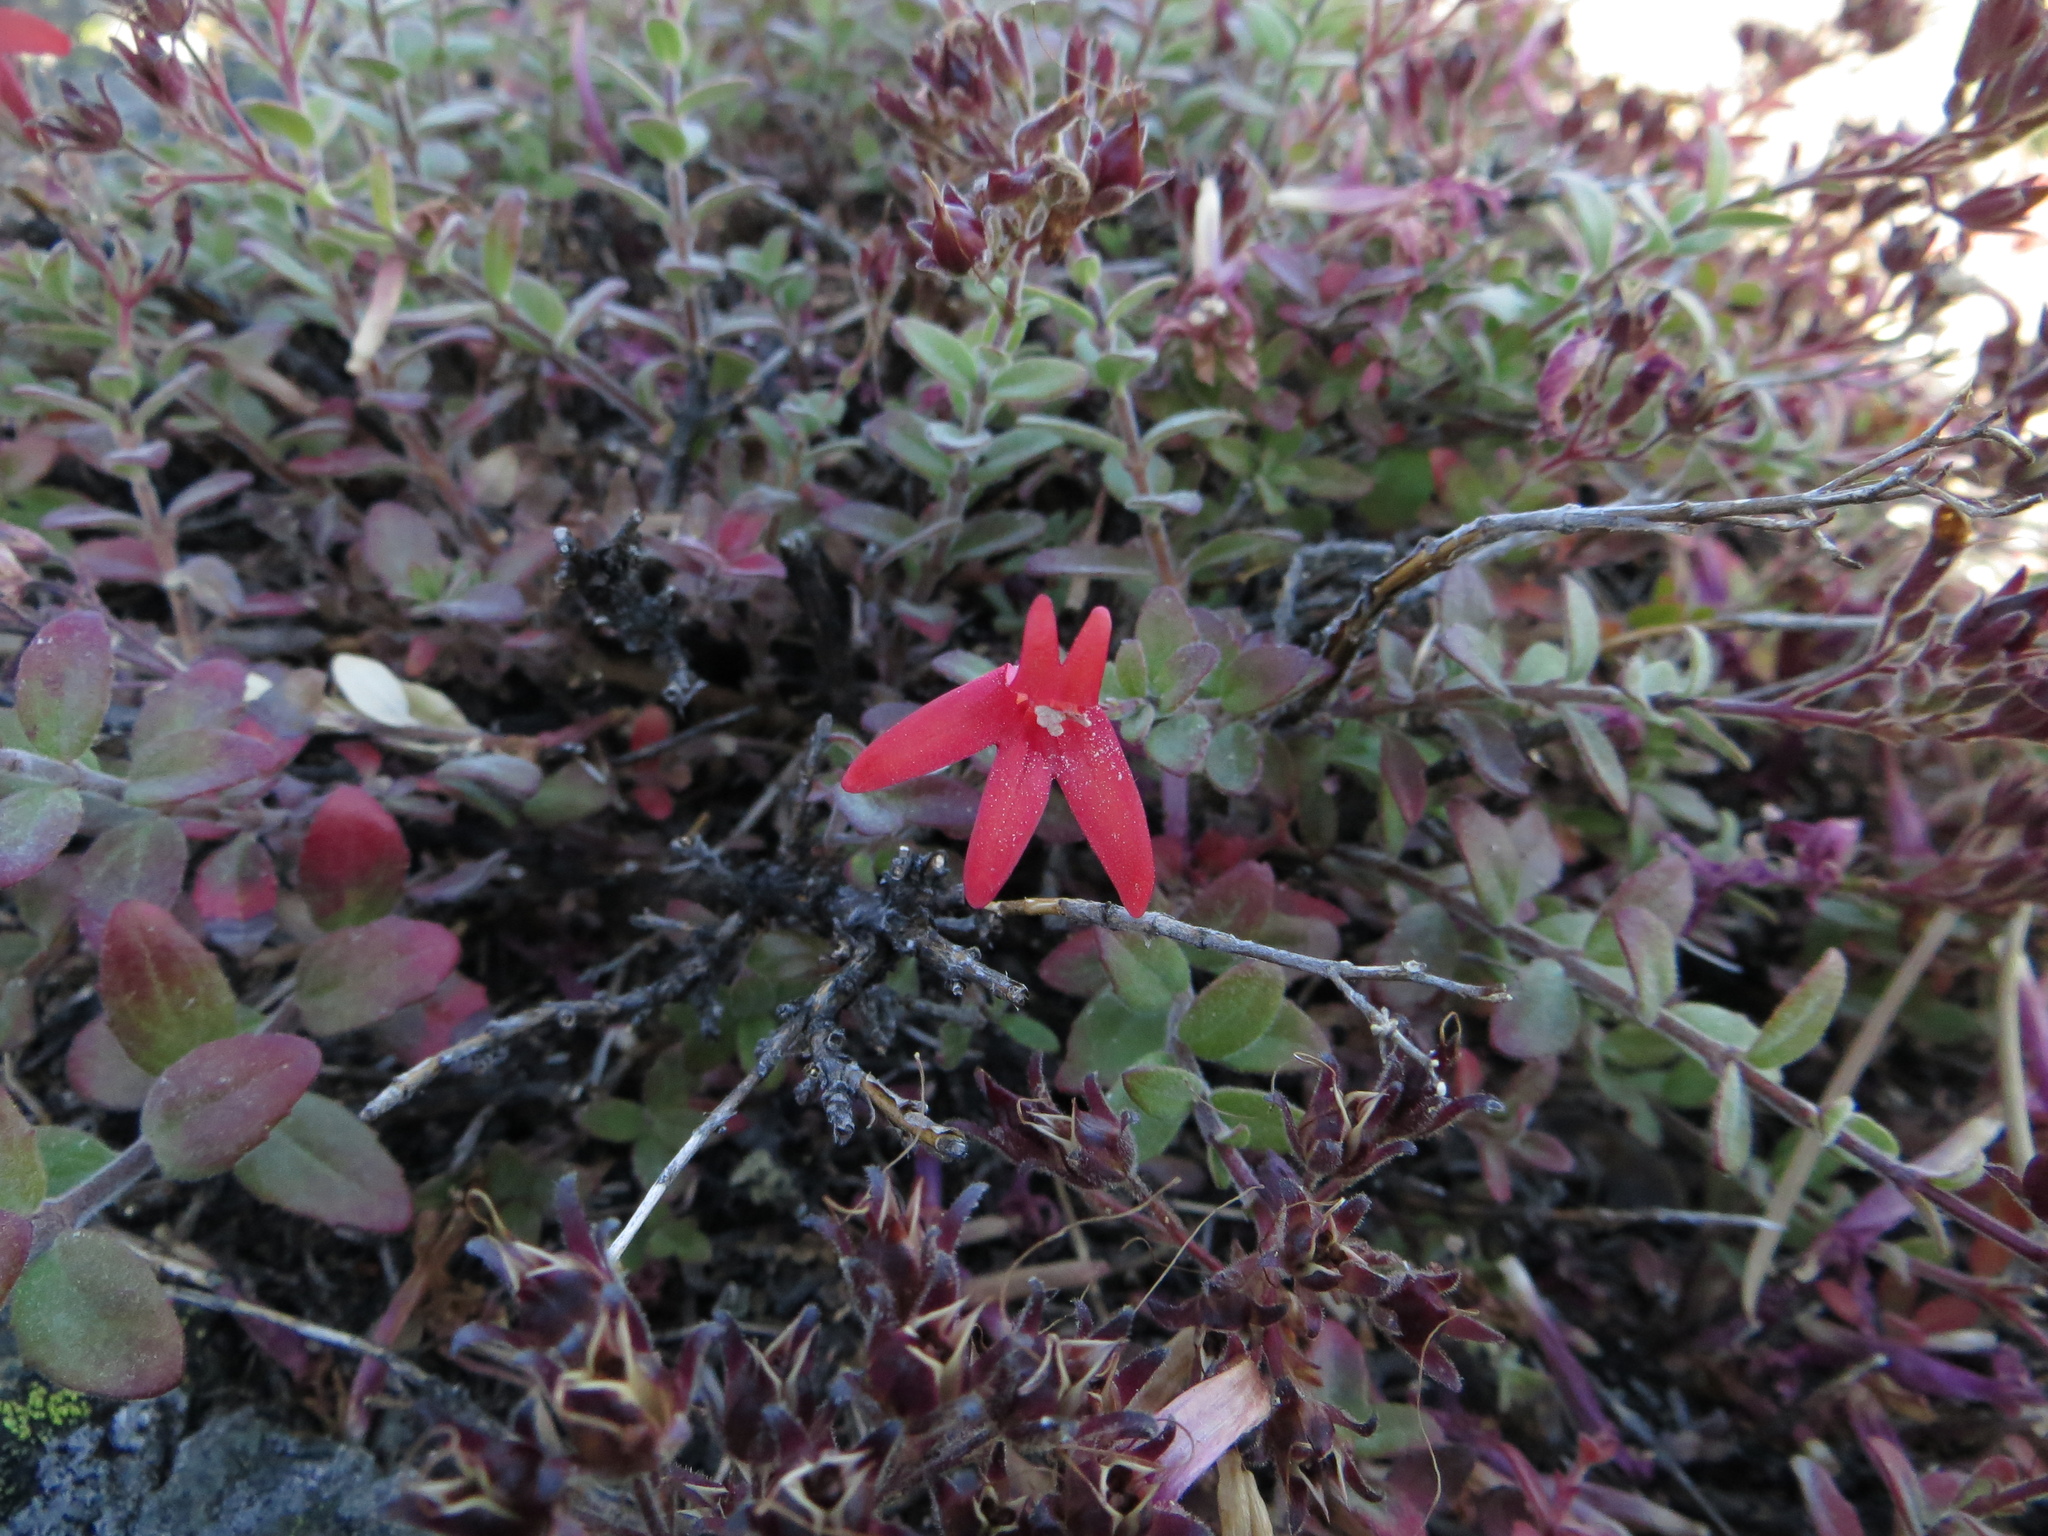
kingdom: Plantae
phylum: Tracheophyta
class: Magnoliopsida
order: Lamiales
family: Plantaginaceae
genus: Keckiella
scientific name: Keckiella corymbosa
